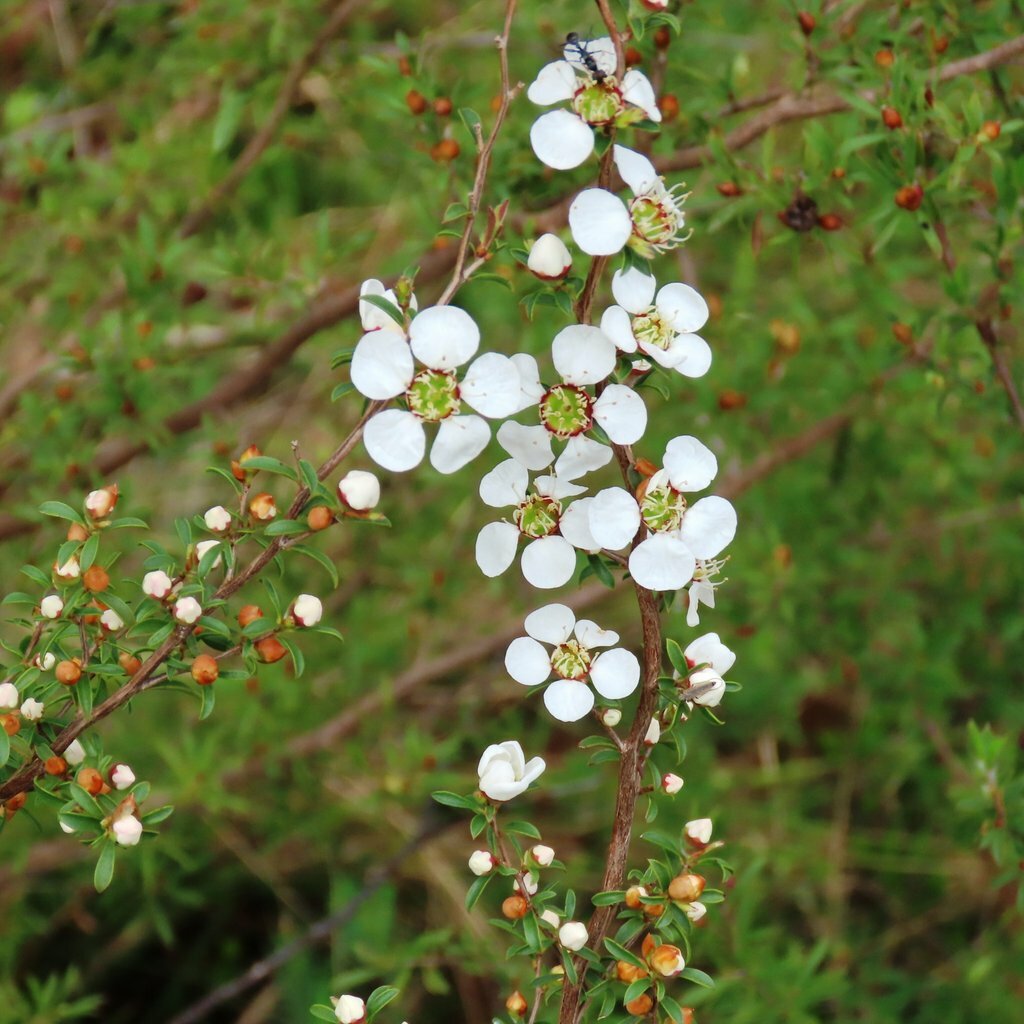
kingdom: Plantae
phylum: Tracheophyta
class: Magnoliopsida
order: Myrtales
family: Myrtaceae
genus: Leptospermum
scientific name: Leptospermum myrsinoides
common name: Heath teatree
